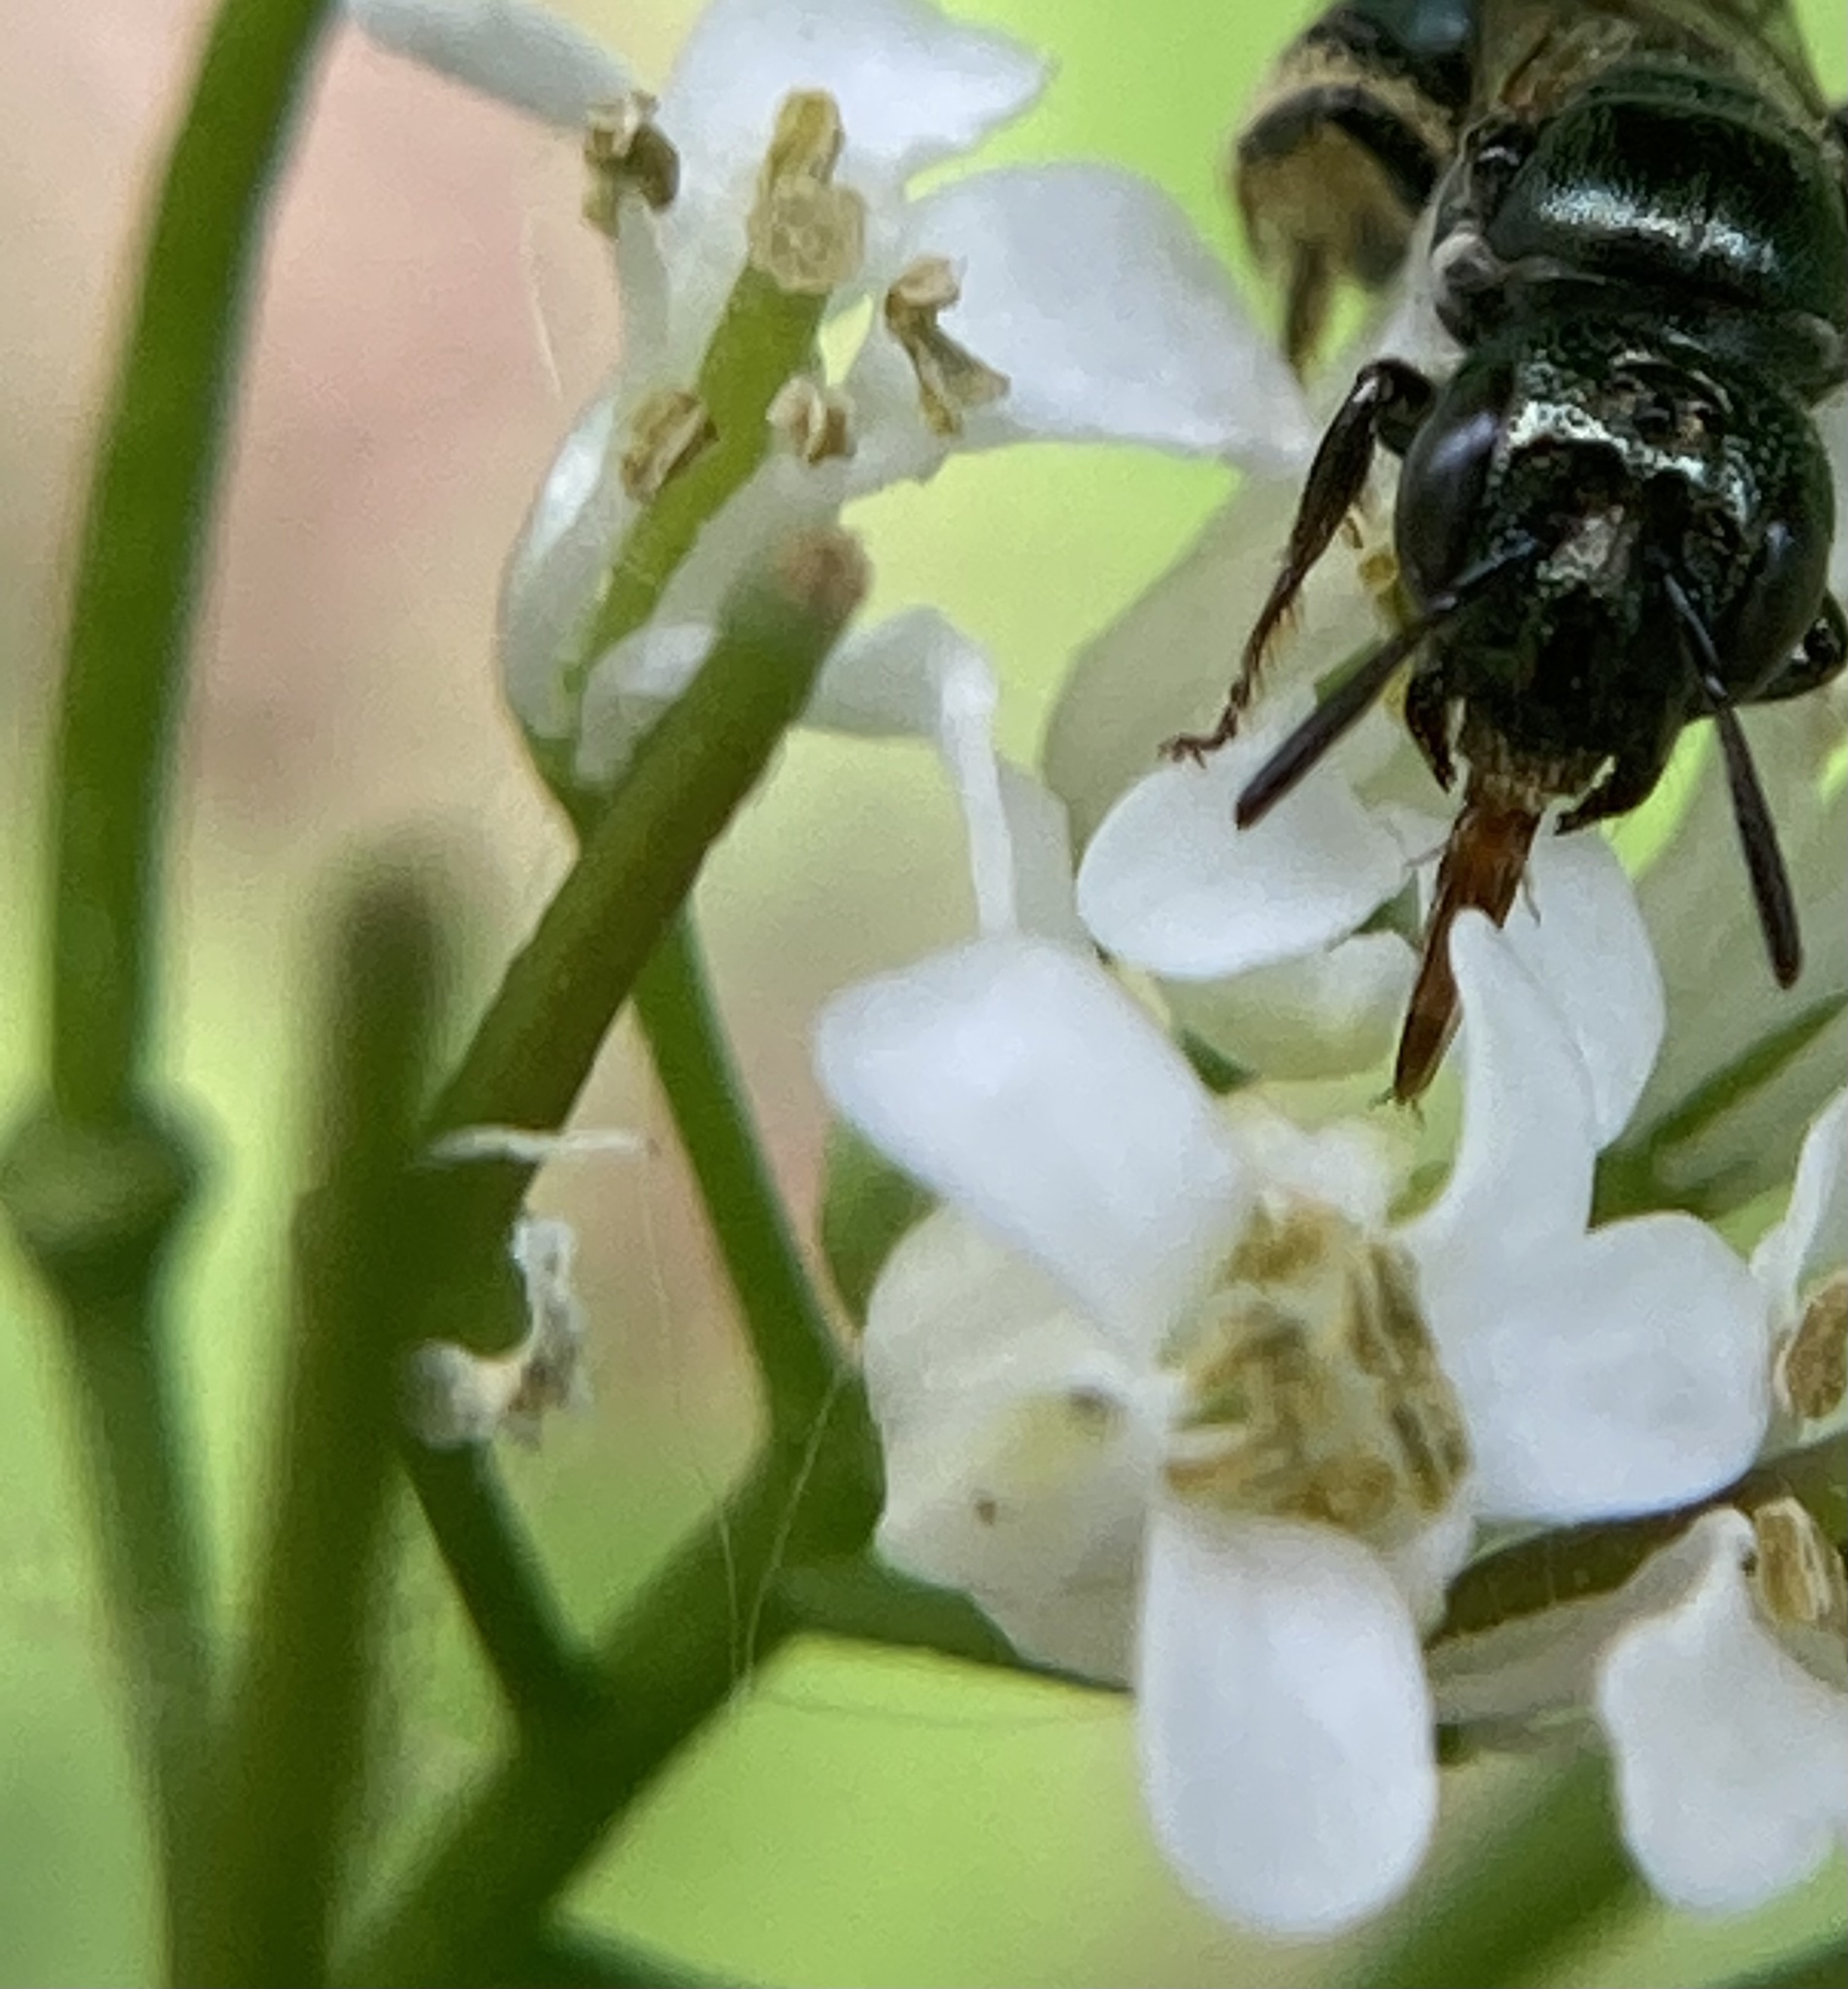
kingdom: Animalia
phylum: Arthropoda
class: Insecta
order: Hymenoptera
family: Apidae
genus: Ceratina
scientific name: Ceratina calcarata
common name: Spurred carpenter bee
